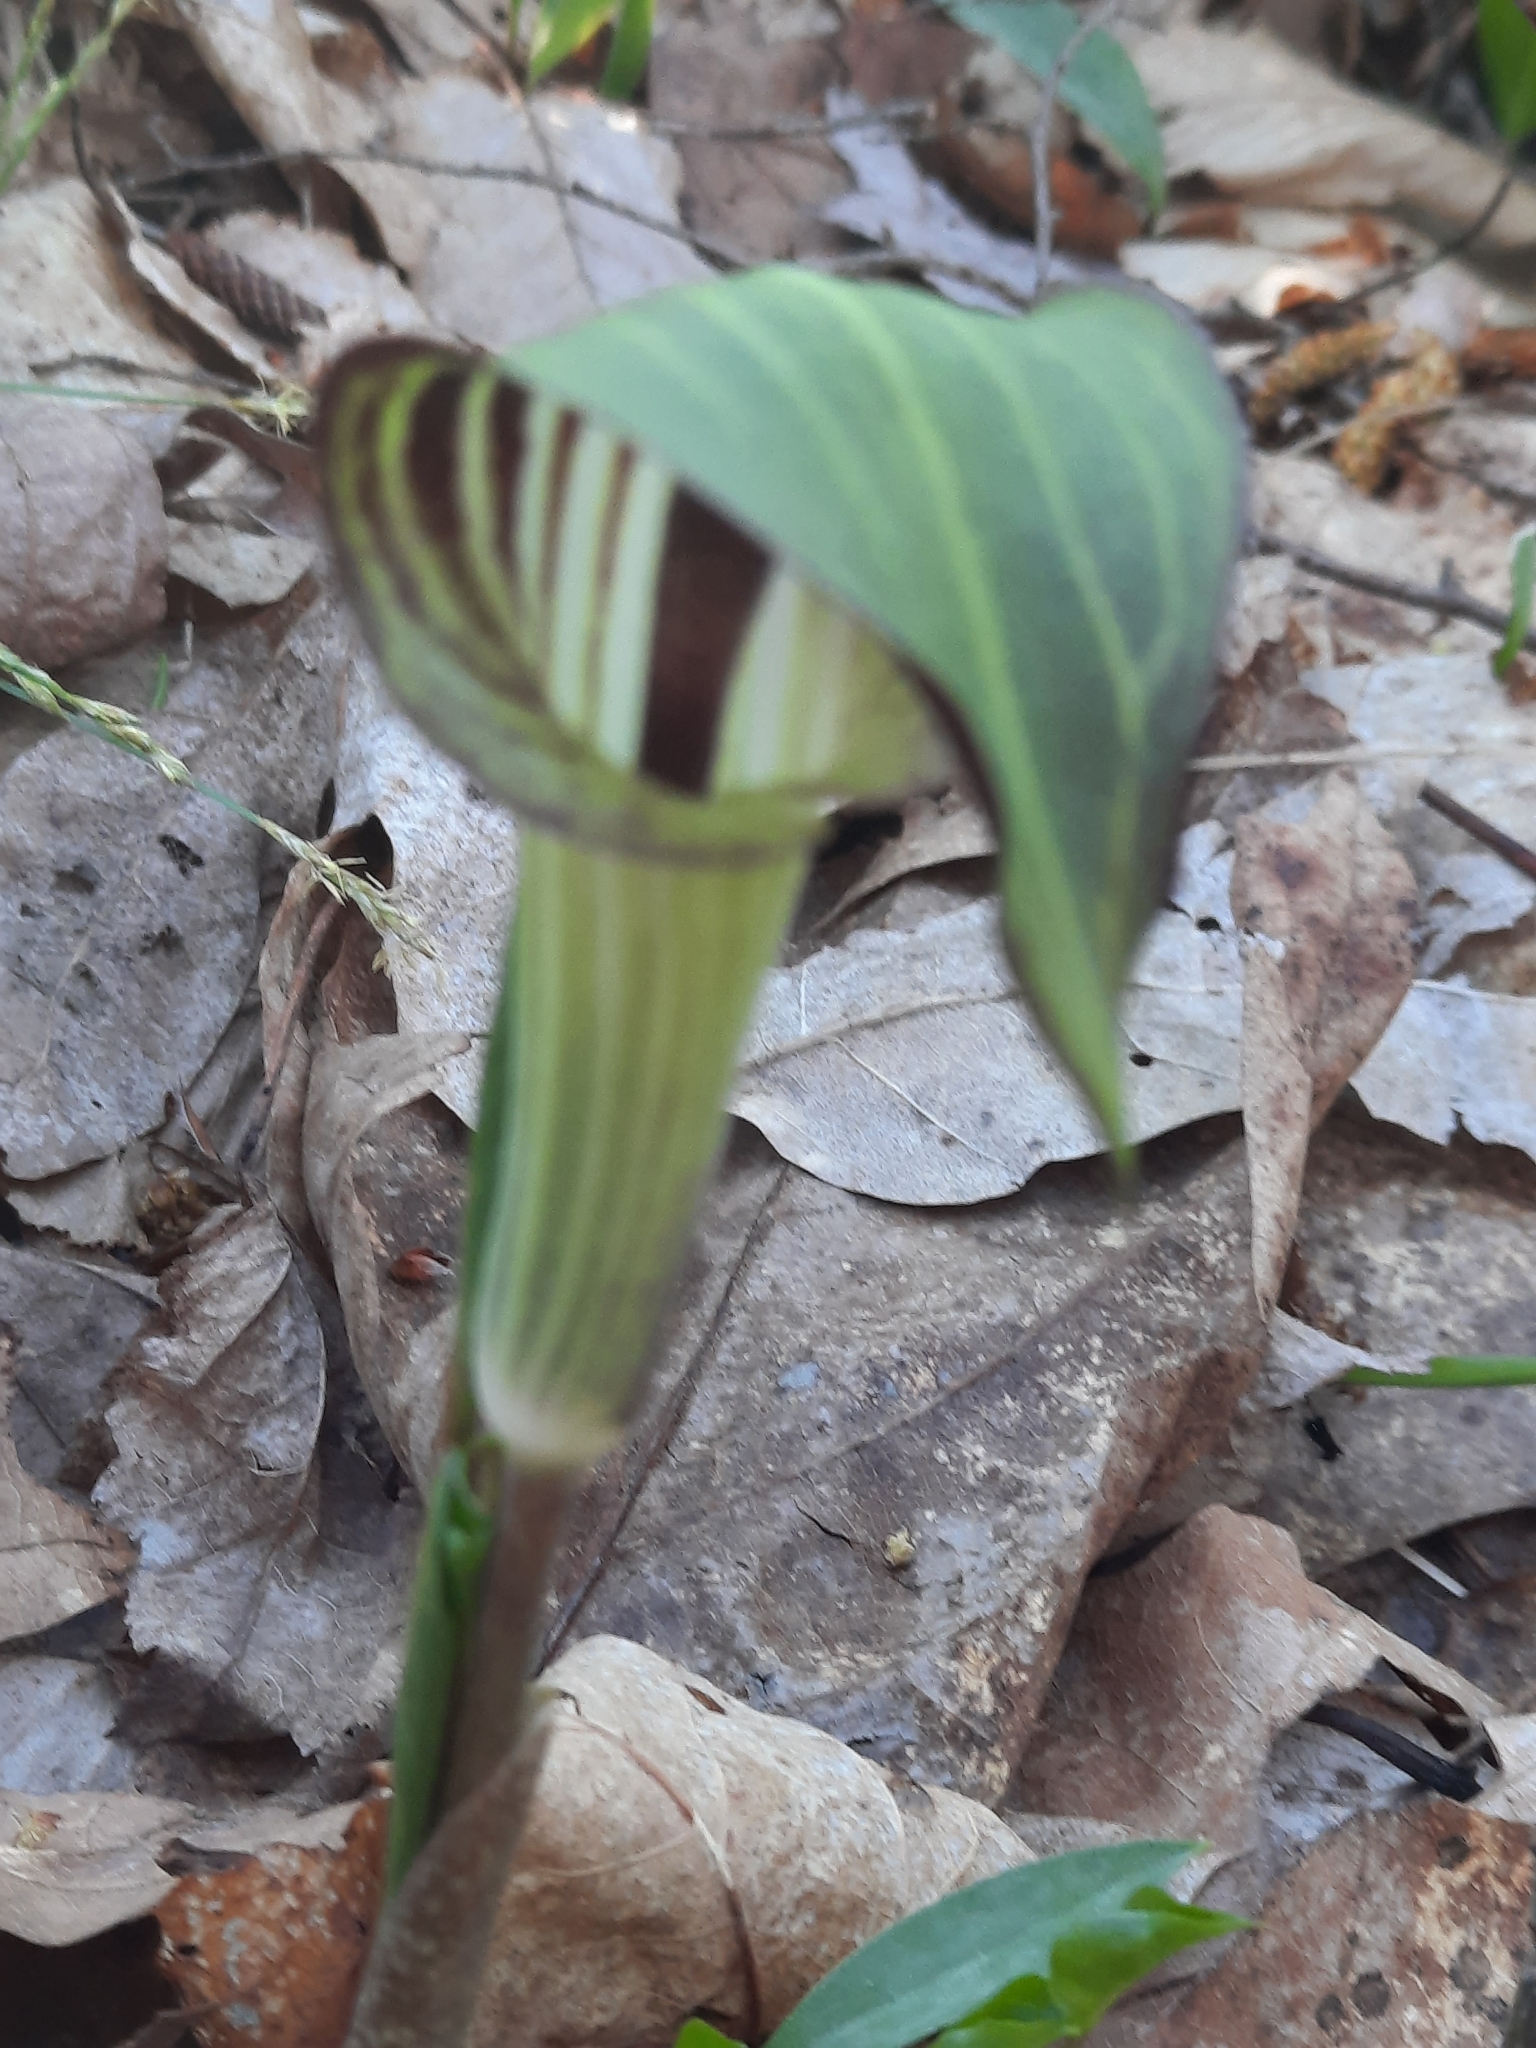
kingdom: Plantae
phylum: Tracheophyta
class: Liliopsida
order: Alismatales
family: Araceae
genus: Arisaema
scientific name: Arisaema triphyllum
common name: Jack-in-the-pulpit
